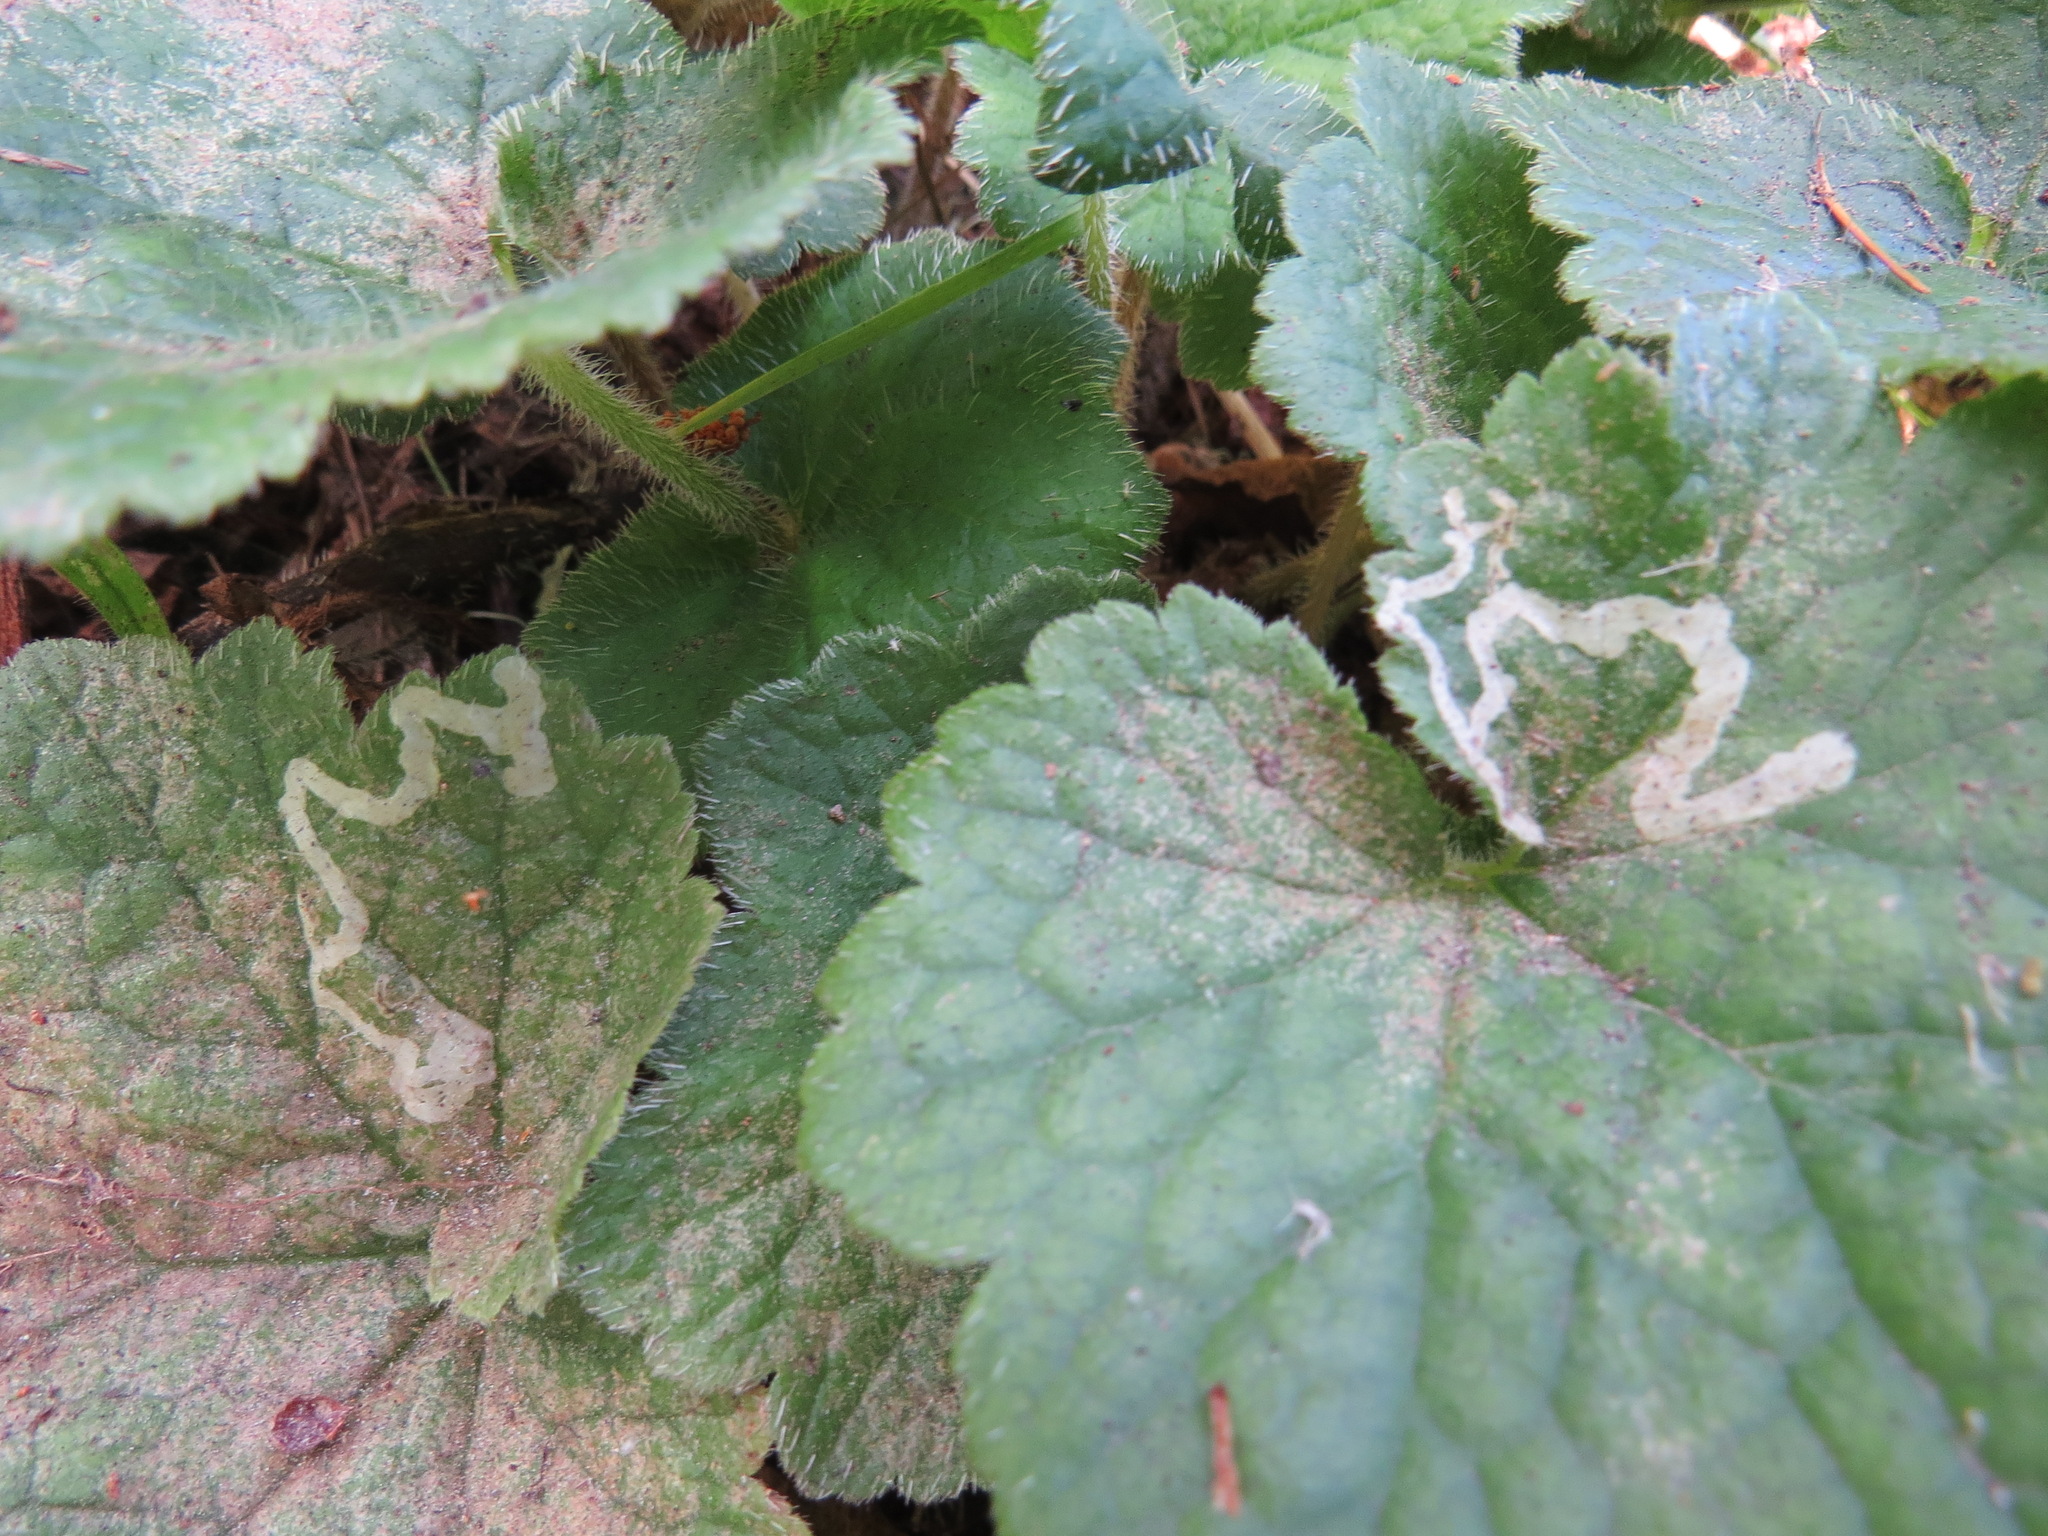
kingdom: Animalia
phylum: Arthropoda
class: Insecta
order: Diptera
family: Agromyzidae
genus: Phytomyza
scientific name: Phytomyza tiarellae
